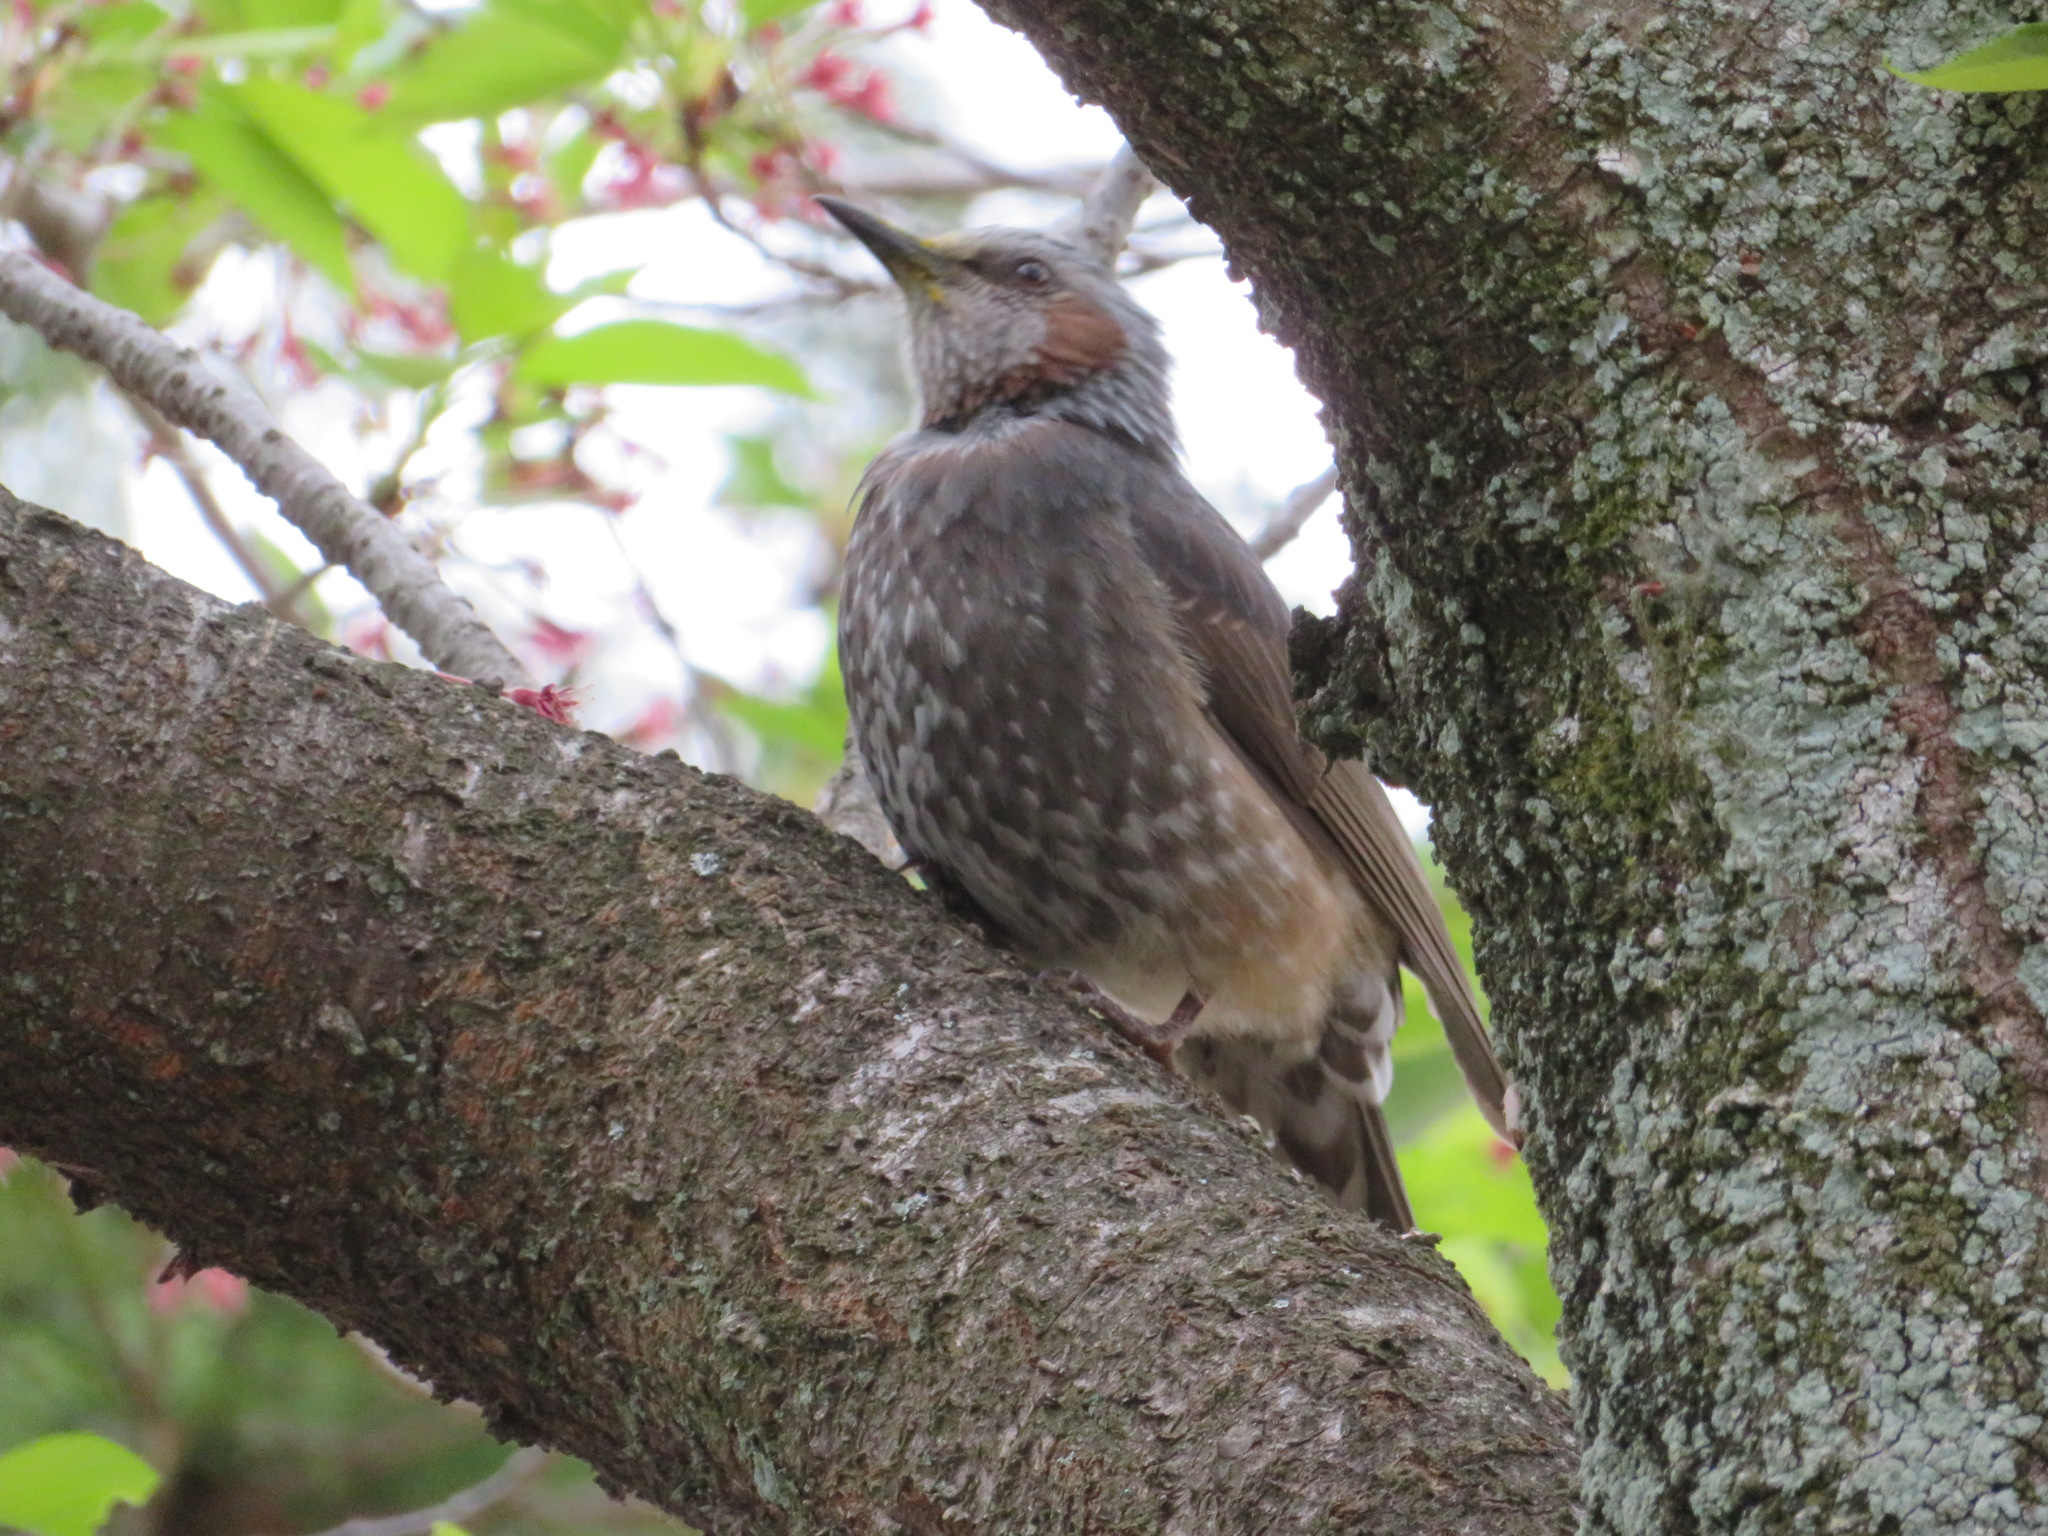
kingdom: Animalia
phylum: Chordata
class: Aves
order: Passeriformes
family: Pycnonotidae
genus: Hypsipetes
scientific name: Hypsipetes amaurotis
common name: Brown-eared bulbul
